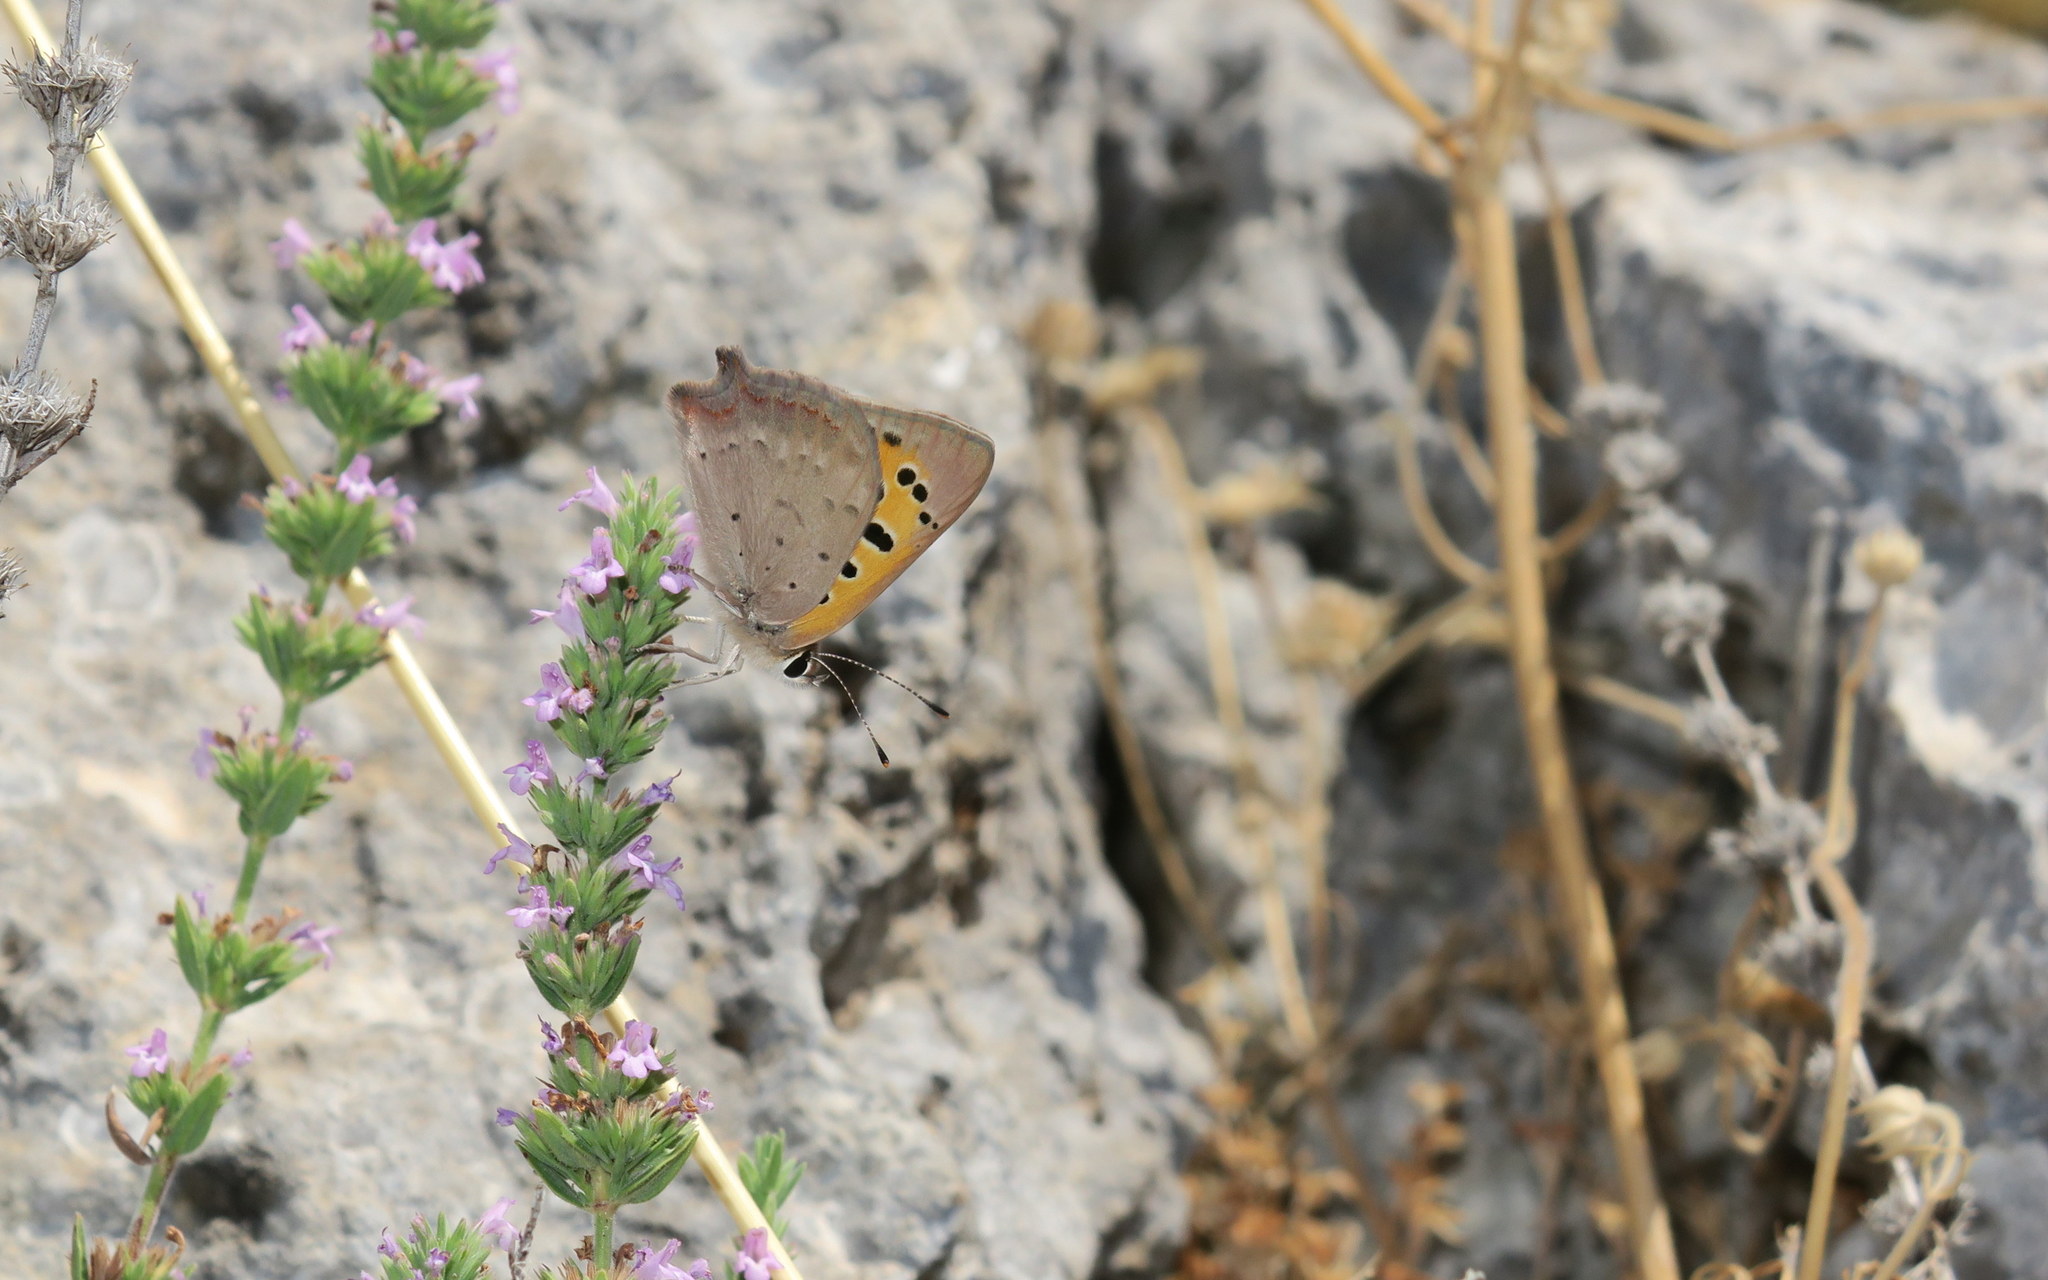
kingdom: Animalia
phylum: Arthropoda
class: Insecta
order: Lepidoptera
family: Lycaenidae
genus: Lycaena
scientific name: Lycaena phlaeas
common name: Small copper
